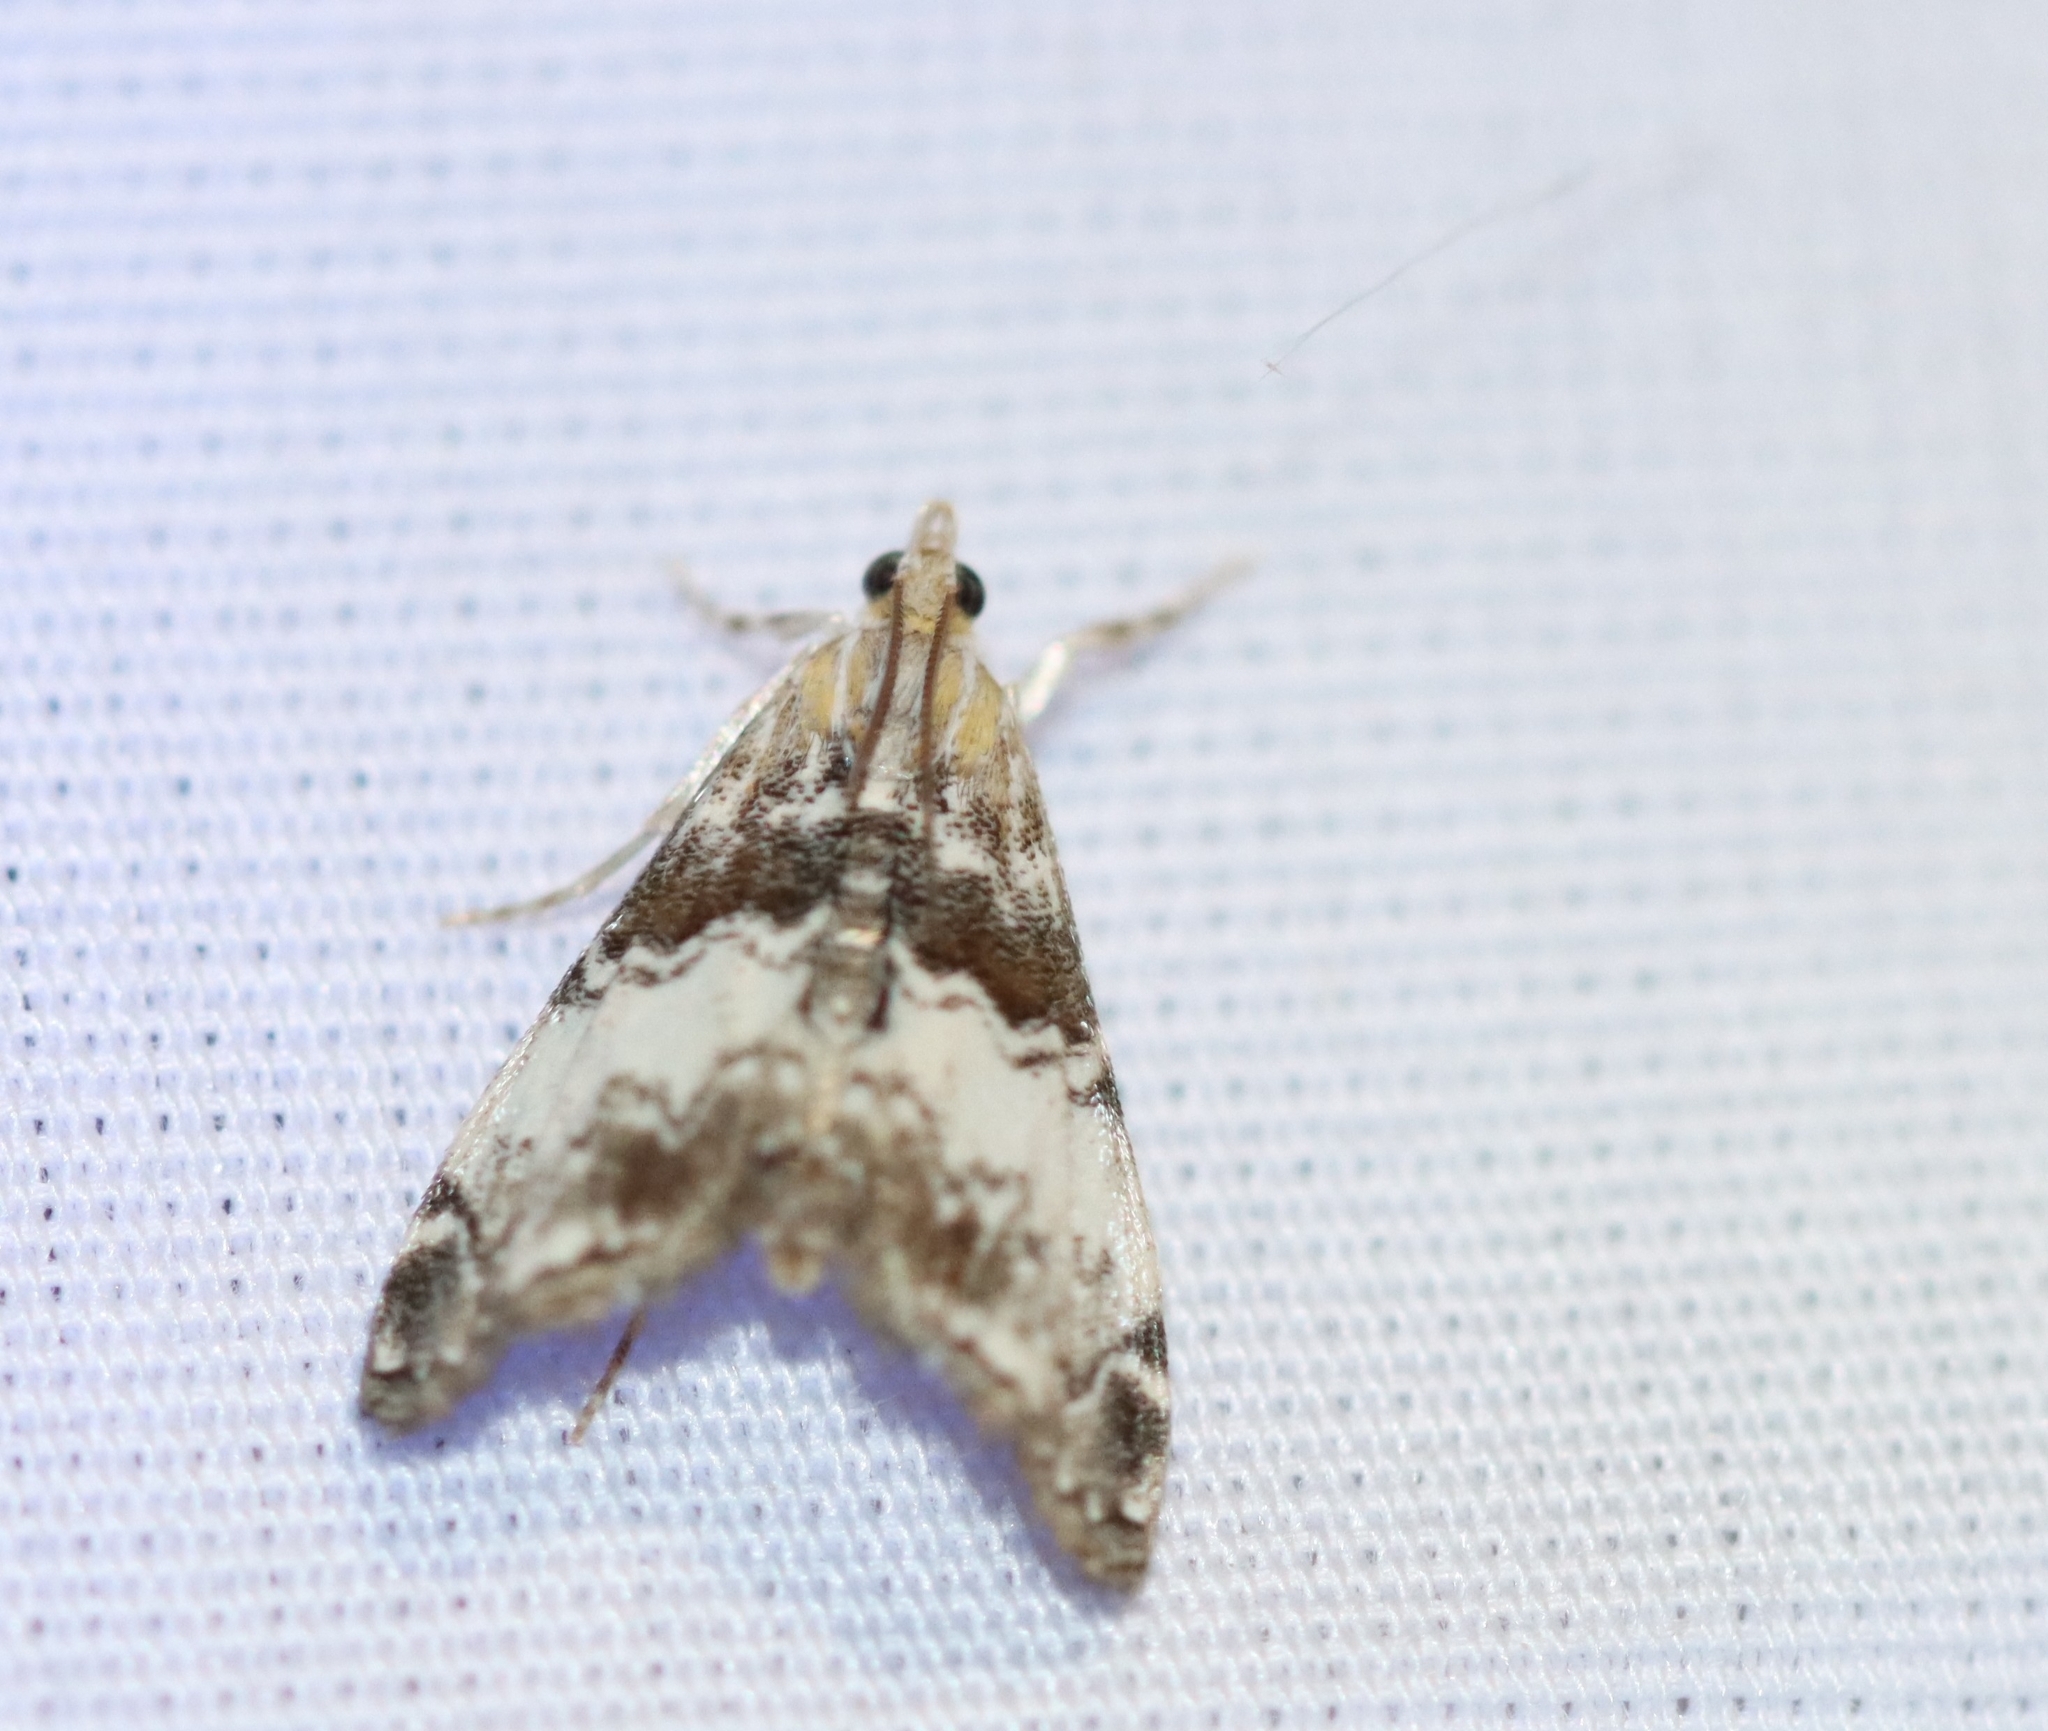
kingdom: Animalia
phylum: Arthropoda
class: Insecta
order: Lepidoptera
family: Crambidae
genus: Dicymolomia
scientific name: Dicymolomia micropunctalis
